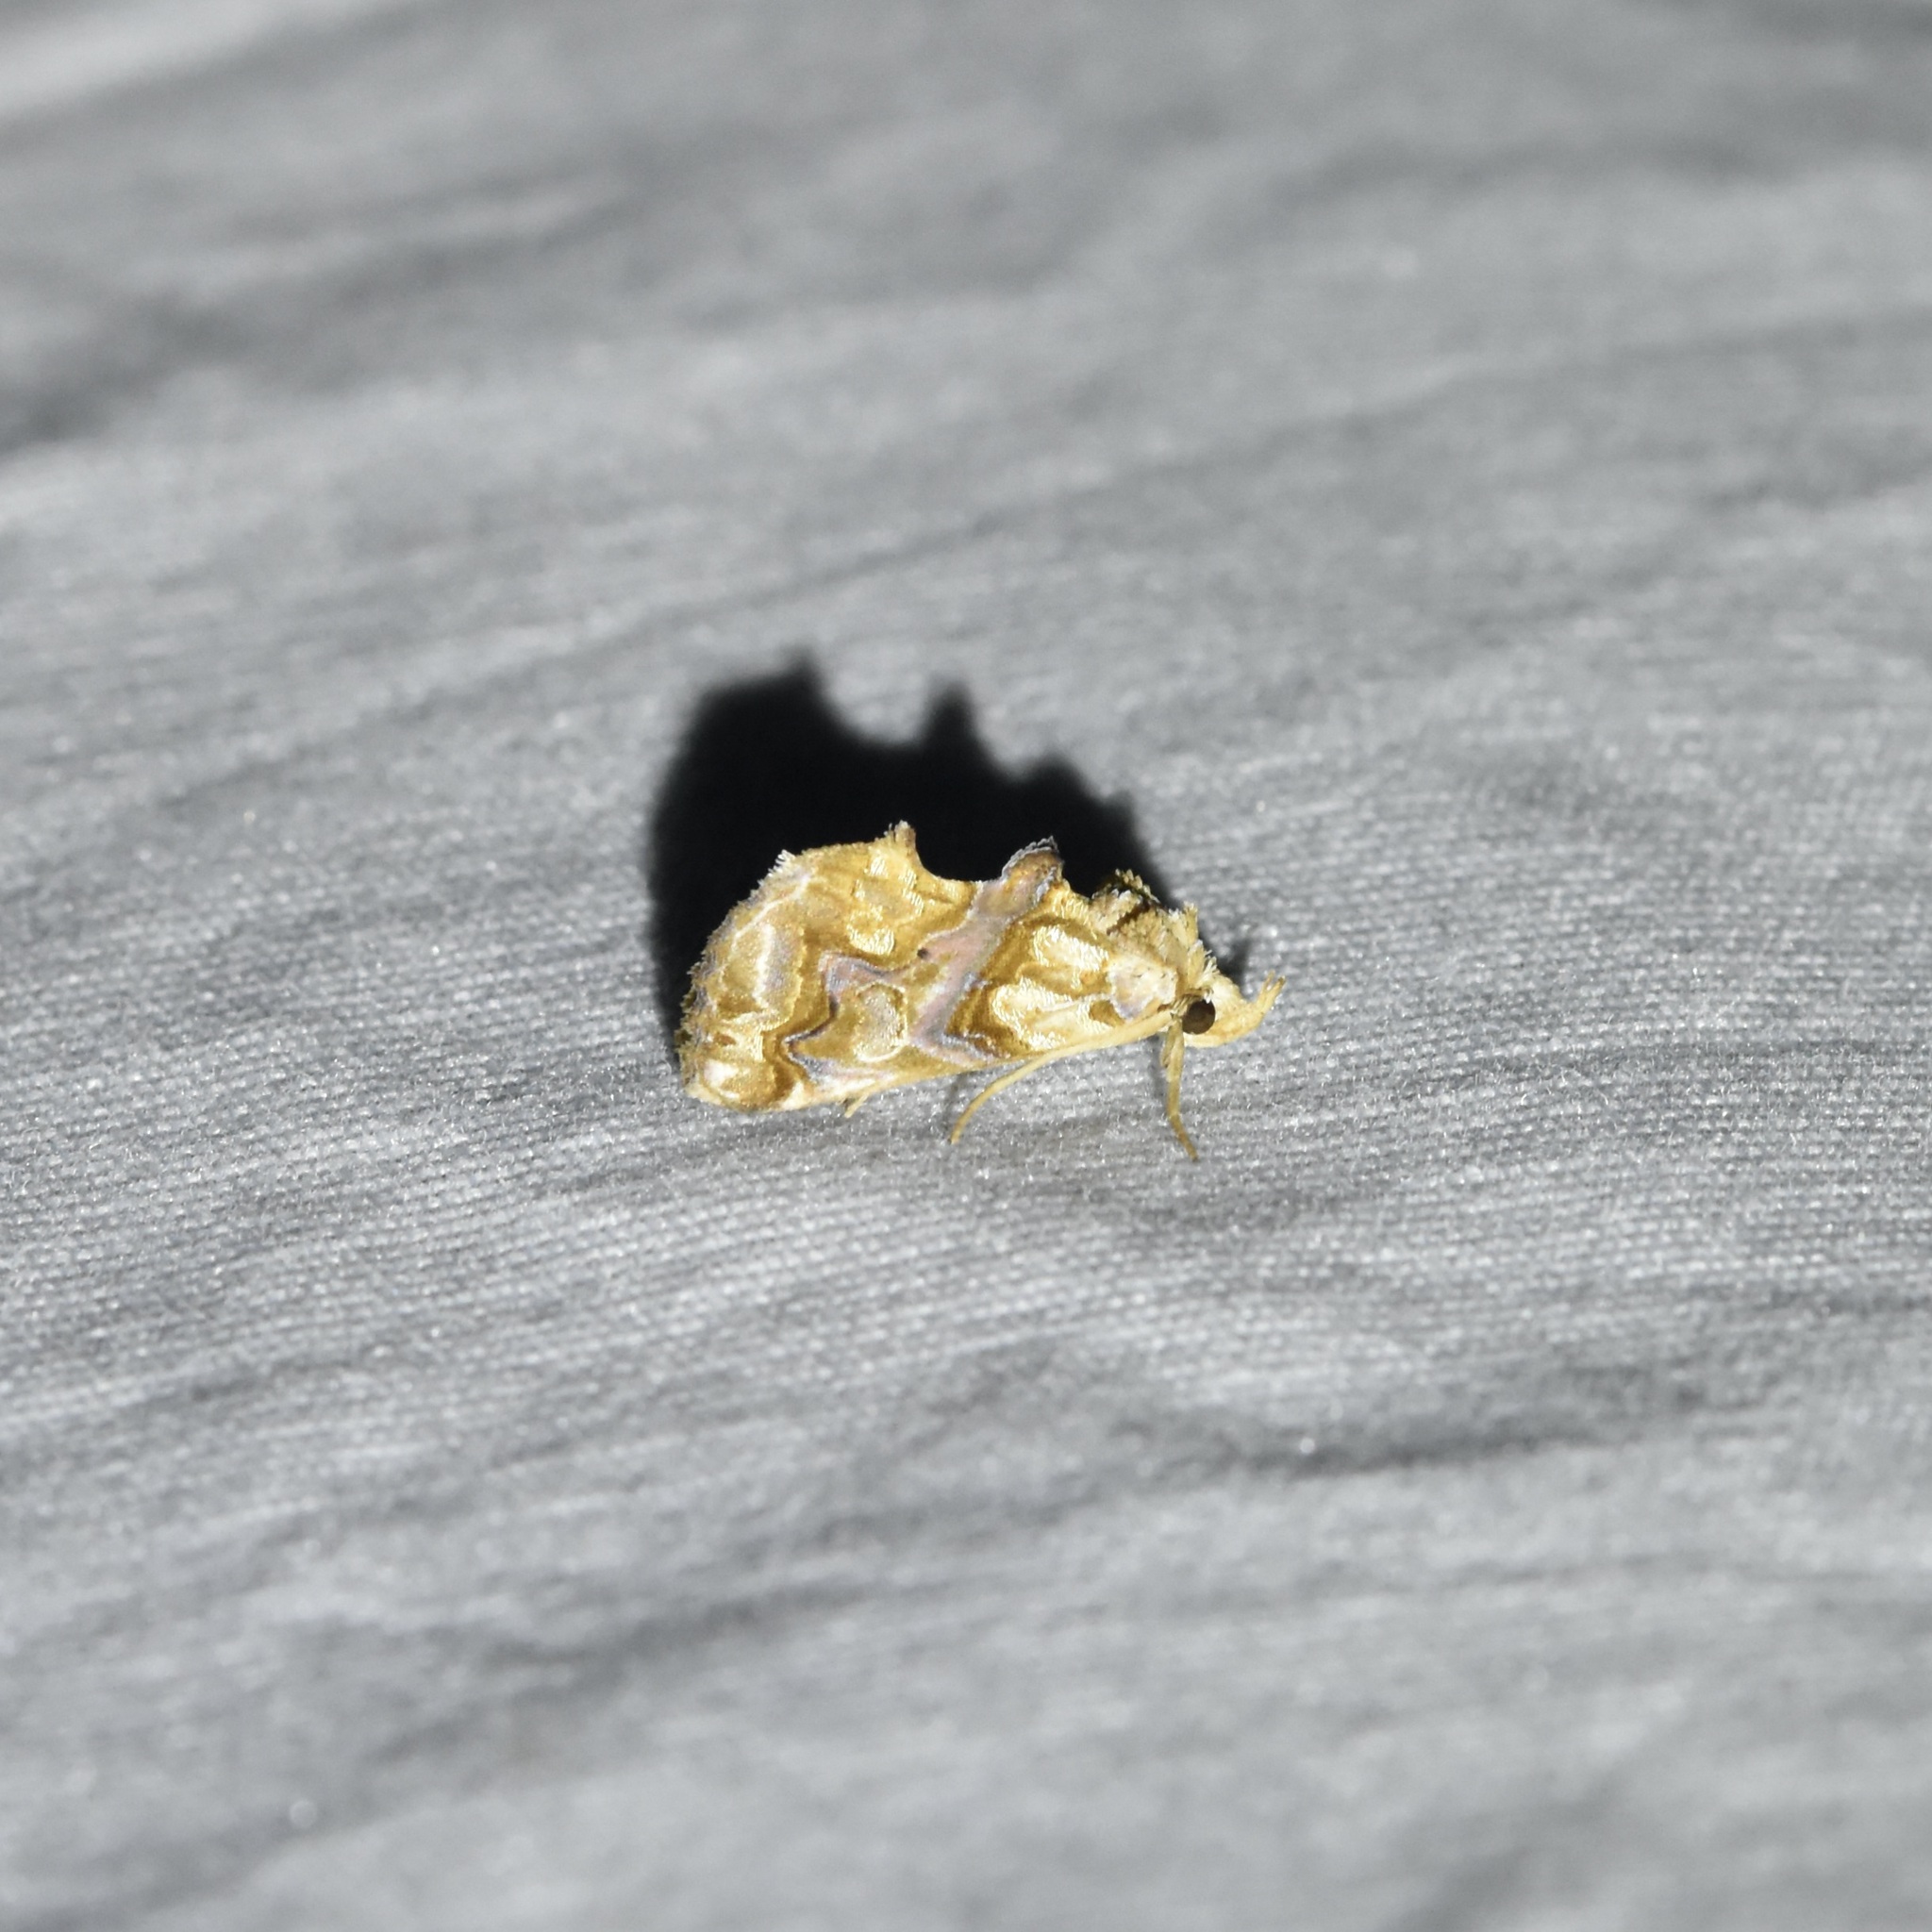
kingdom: Animalia
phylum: Arthropoda
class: Insecta
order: Lepidoptera
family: Erebidae
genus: Plusiodonta
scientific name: Plusiodonta compressipalpis
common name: Moonseed moth
